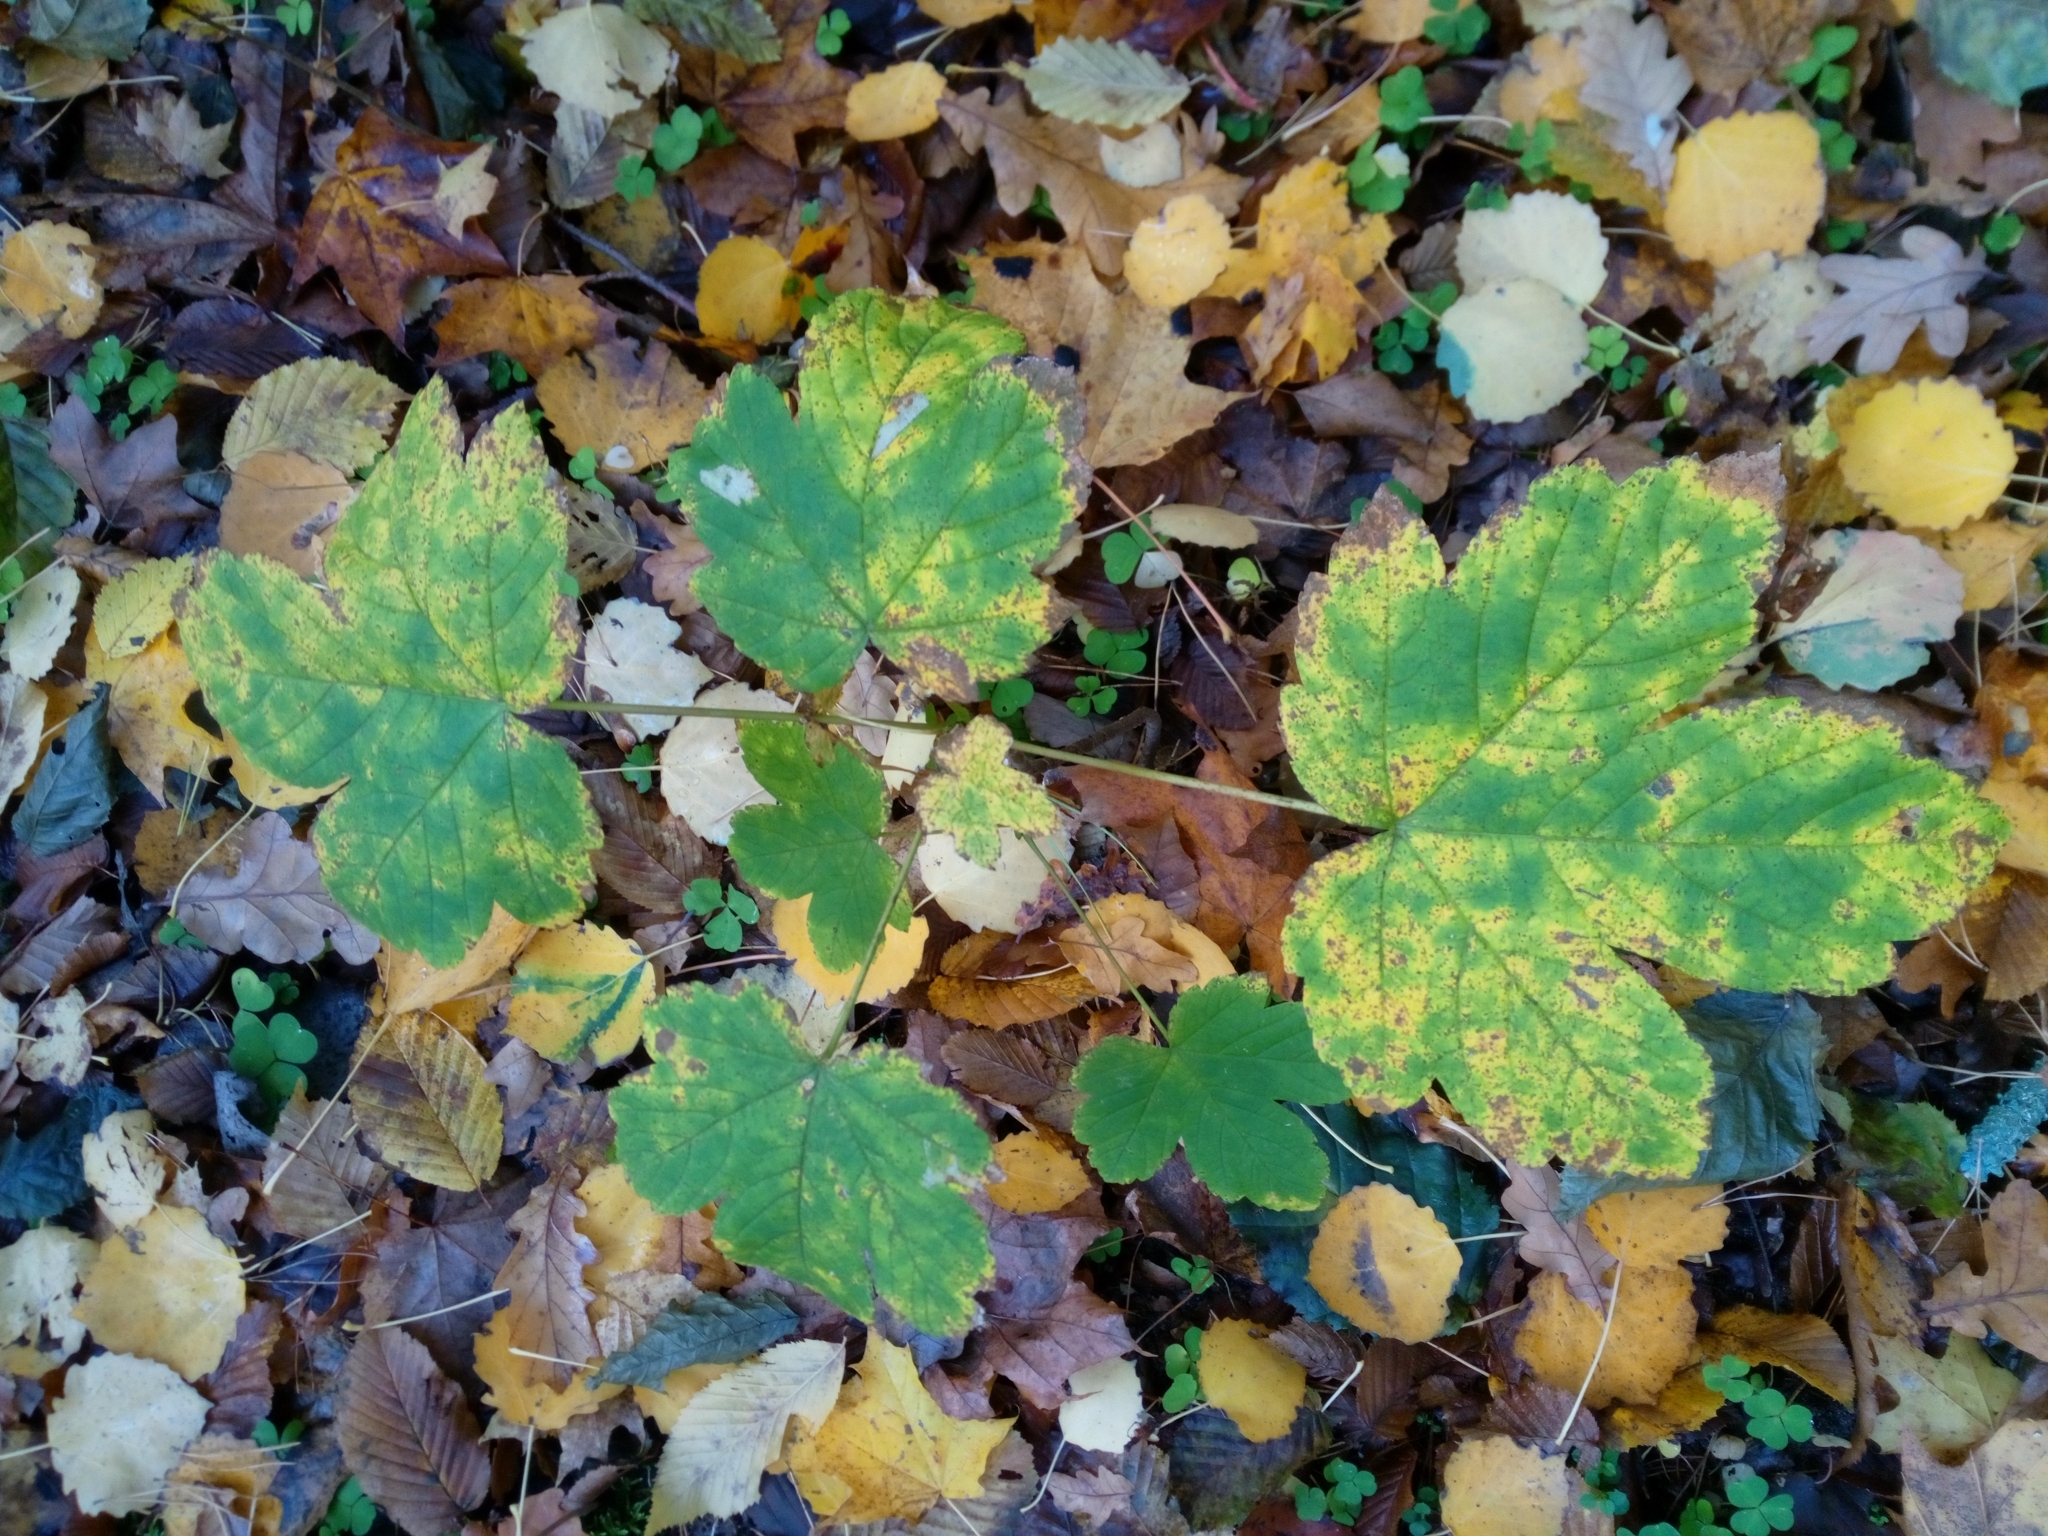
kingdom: Plantae
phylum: Tracheophyta
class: Magnoliopsida
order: Sapindales
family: Sapindaceae
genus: Acer
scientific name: Acer pseudoplatanus
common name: Sycamore
